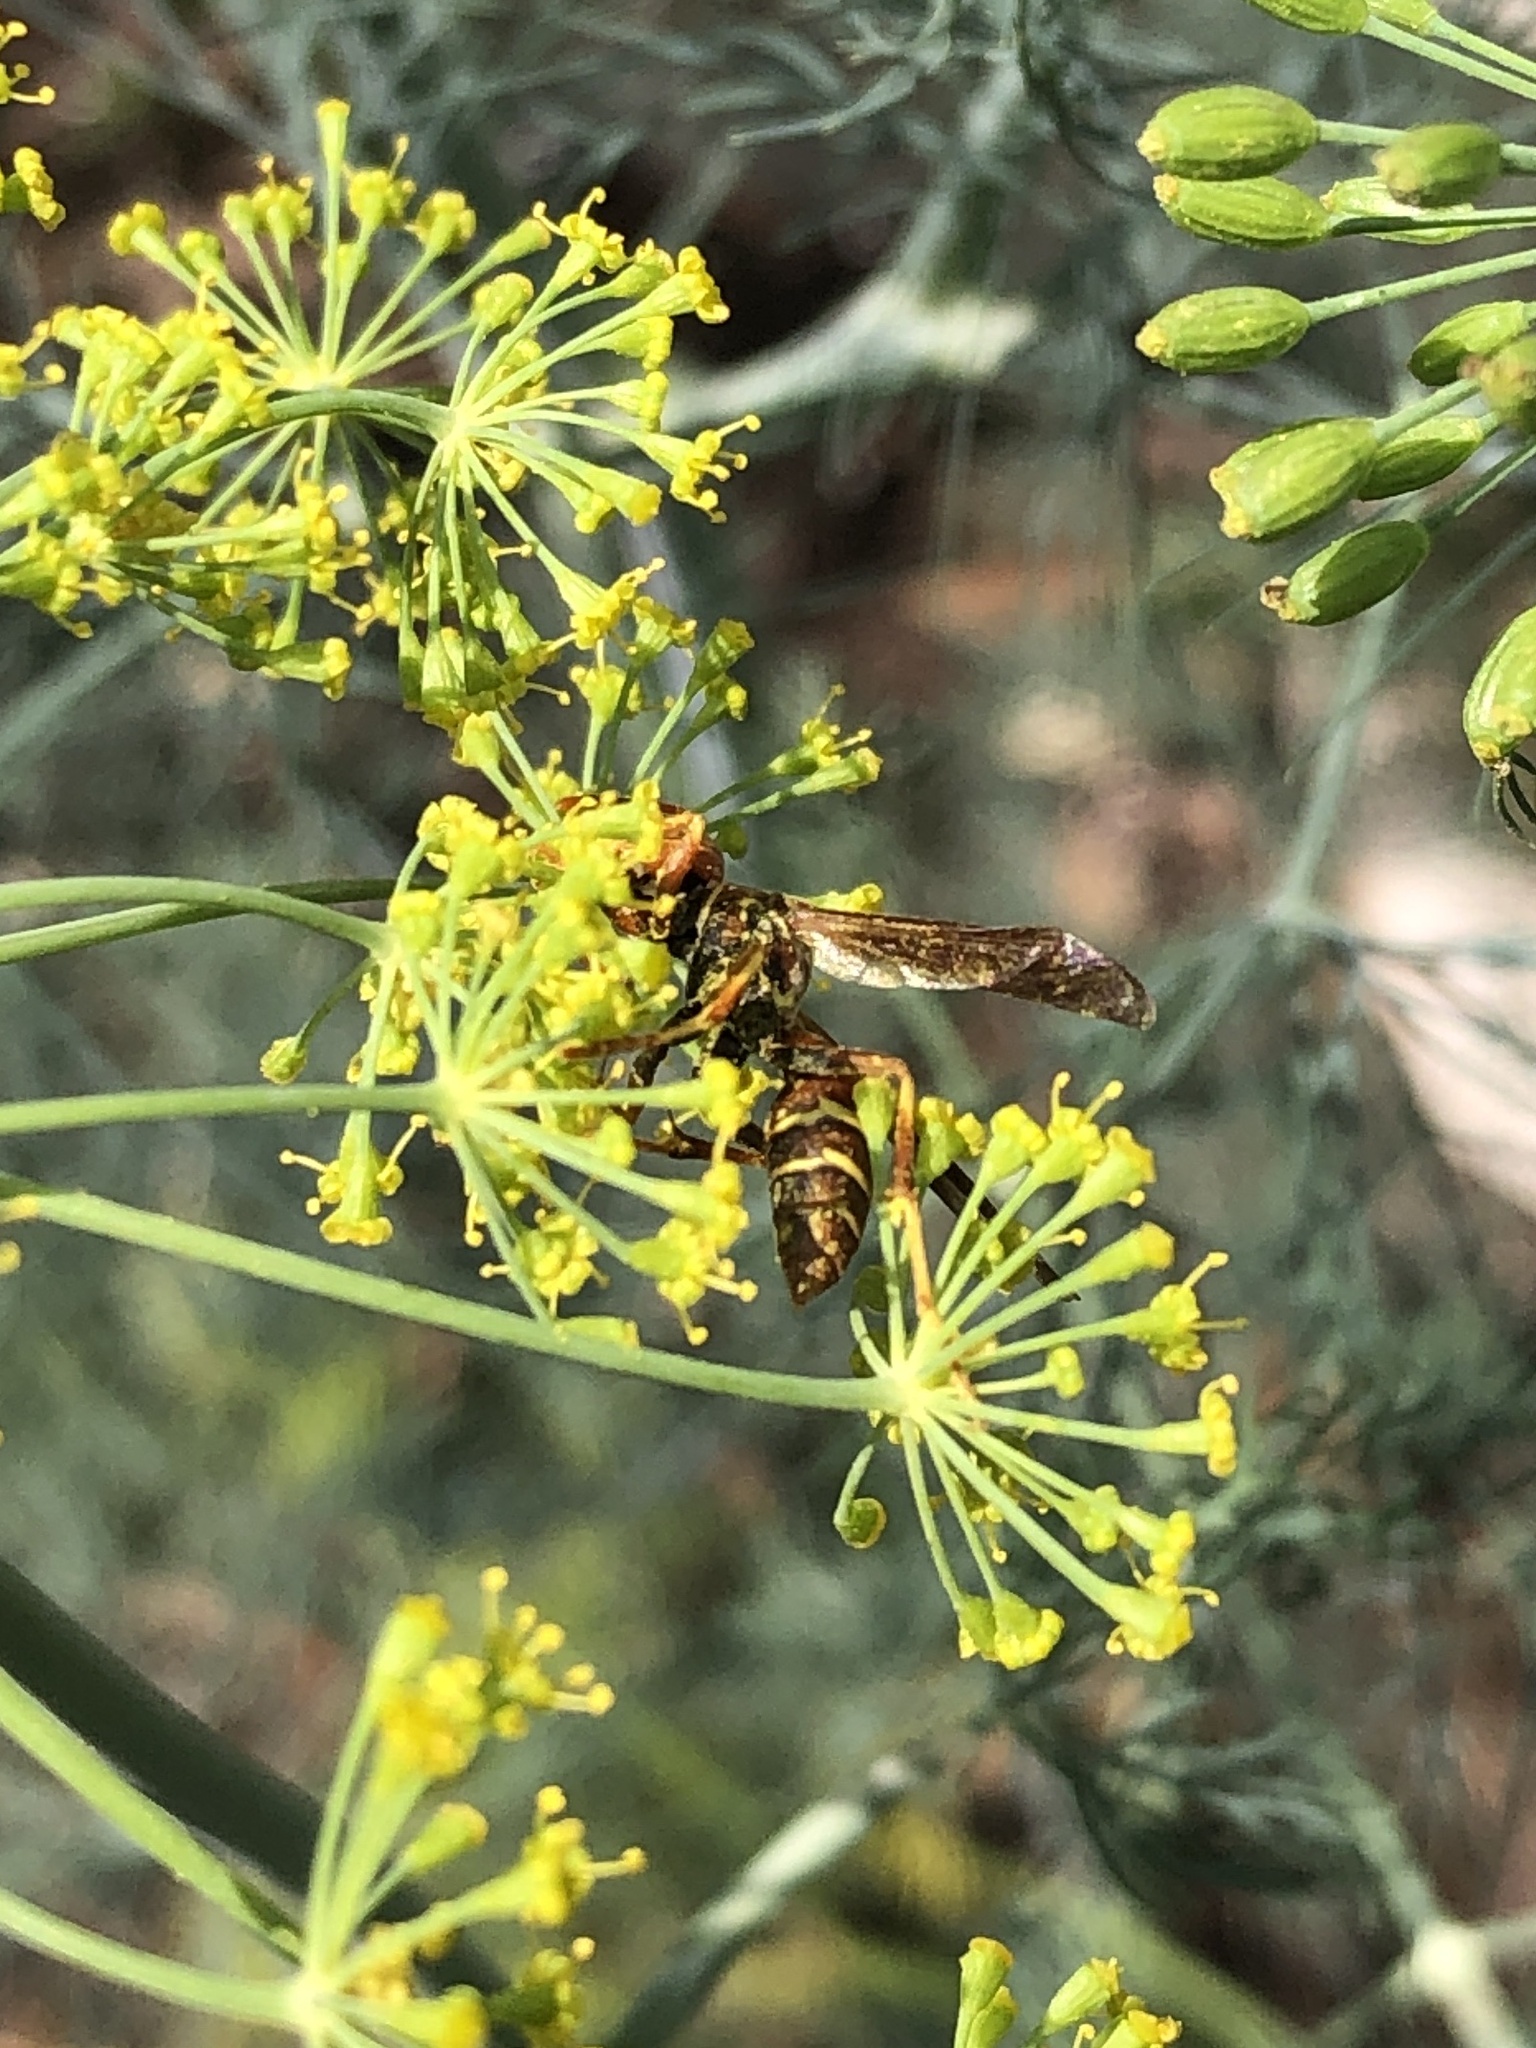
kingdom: Animalia
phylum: Arthropoda
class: Insecta
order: Hymenoptera
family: Eumenidae
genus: Polistes
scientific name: Polistes dorsalis
